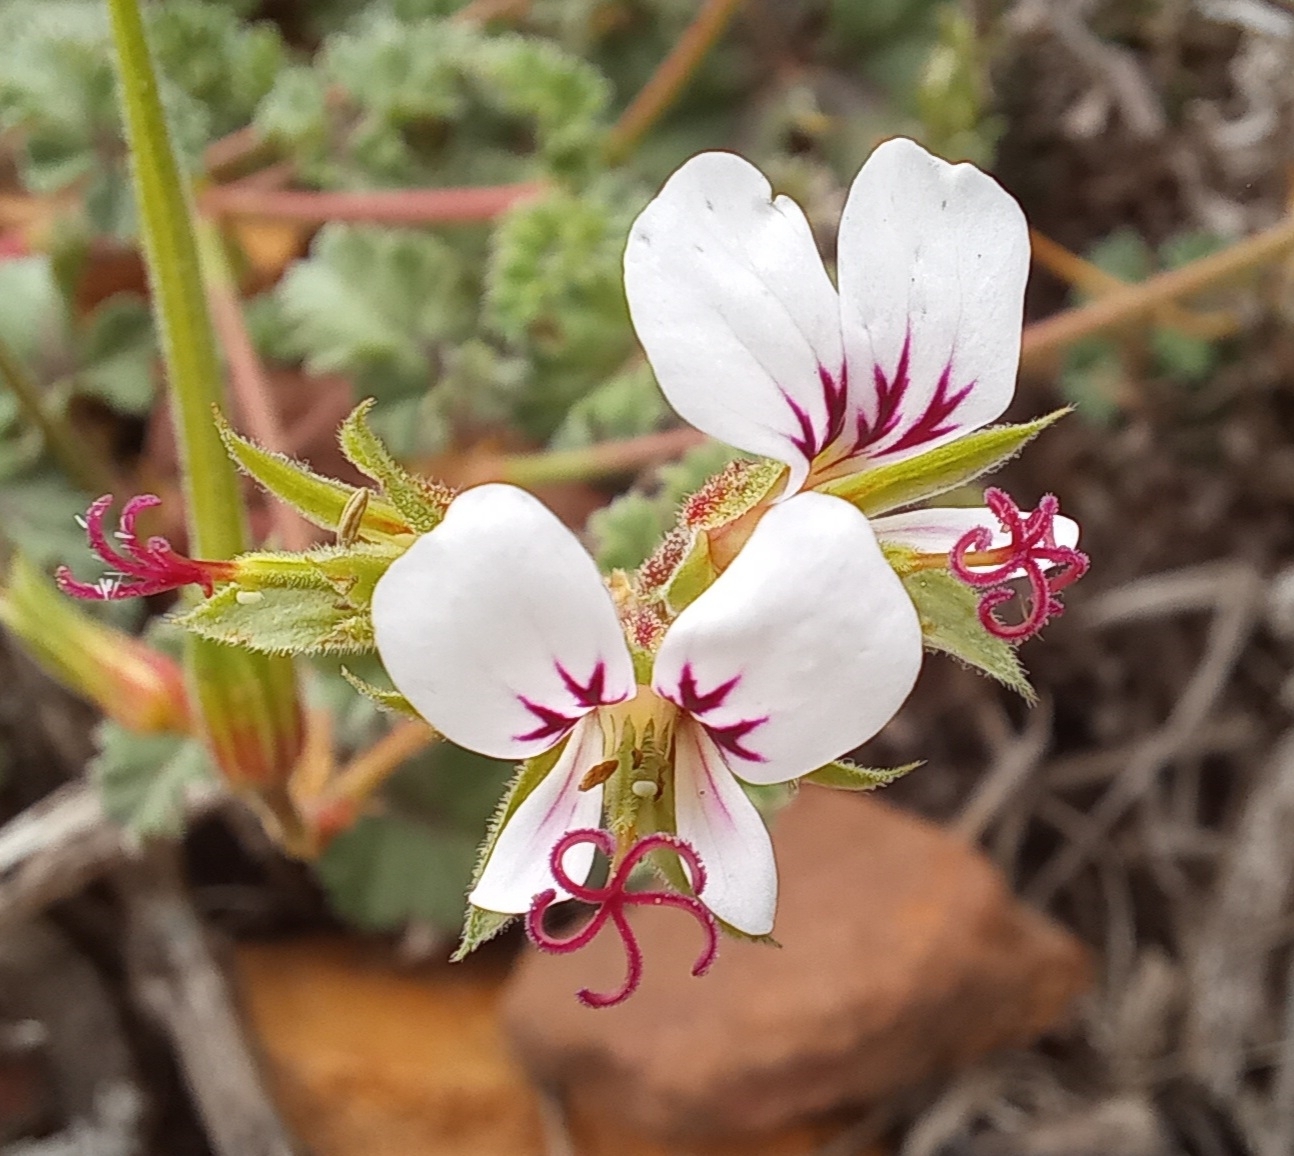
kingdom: Plantae
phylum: Tracheophyta
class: Magnoliopsida
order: Geraniales
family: Geraniaceae
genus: Pelargonium
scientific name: Pelargonium candicans
